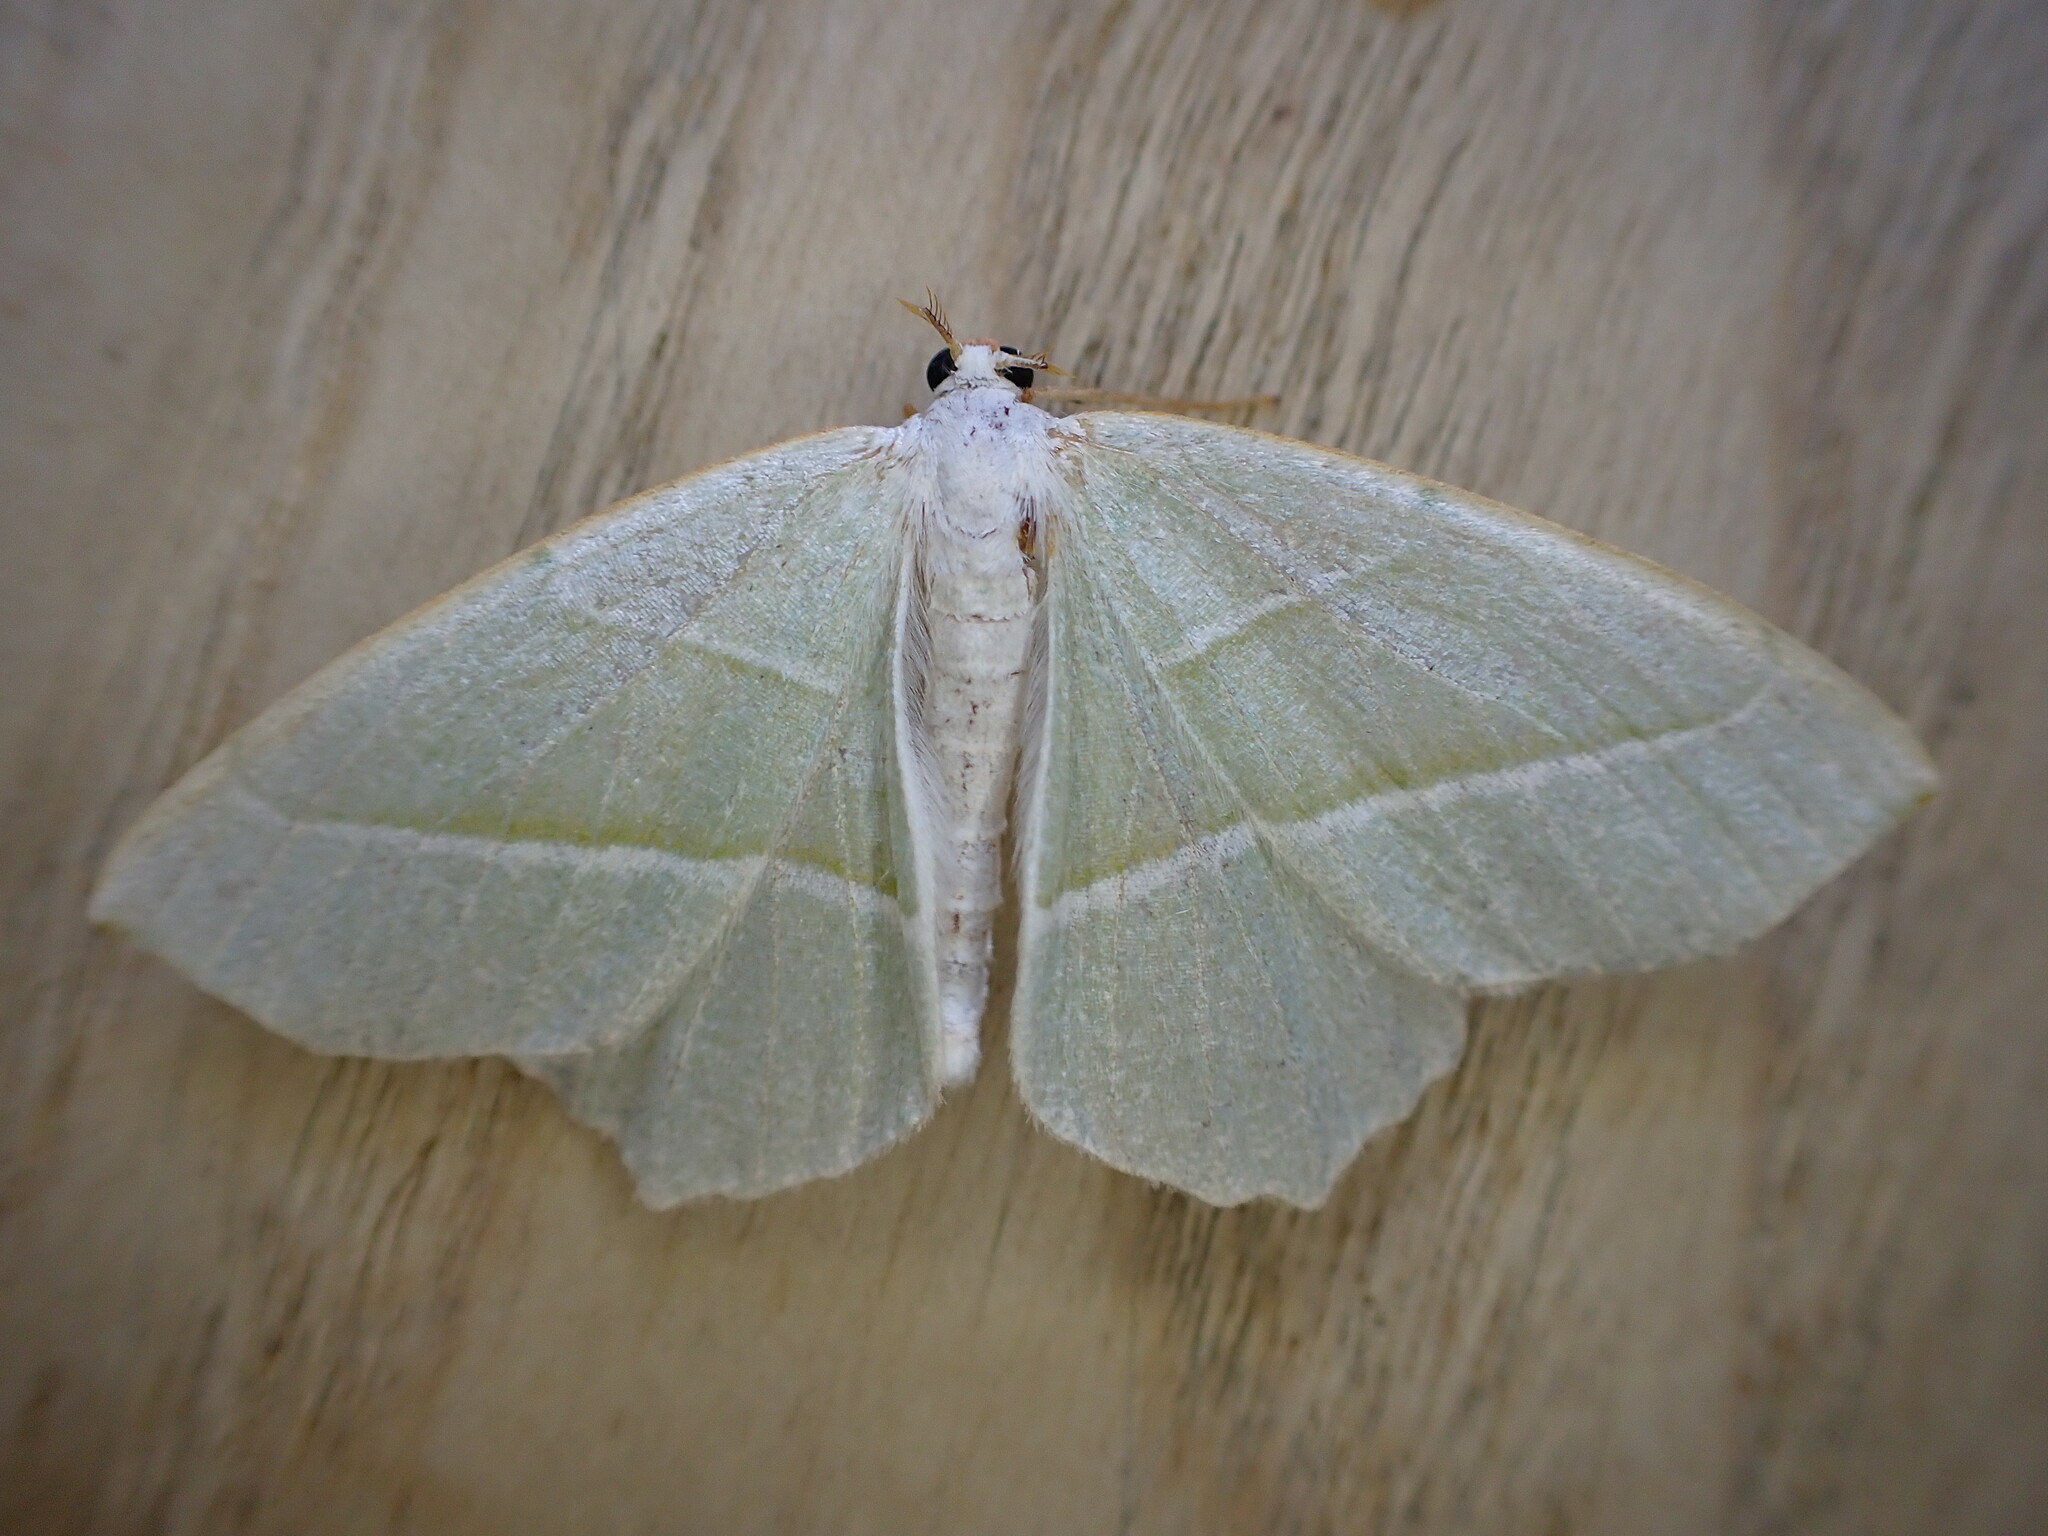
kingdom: Animalia
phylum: Arthropoda
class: Insecta
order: Lepidoptera
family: Geometridae
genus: Campaea
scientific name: Campaea margaritaria
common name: Light emerald
